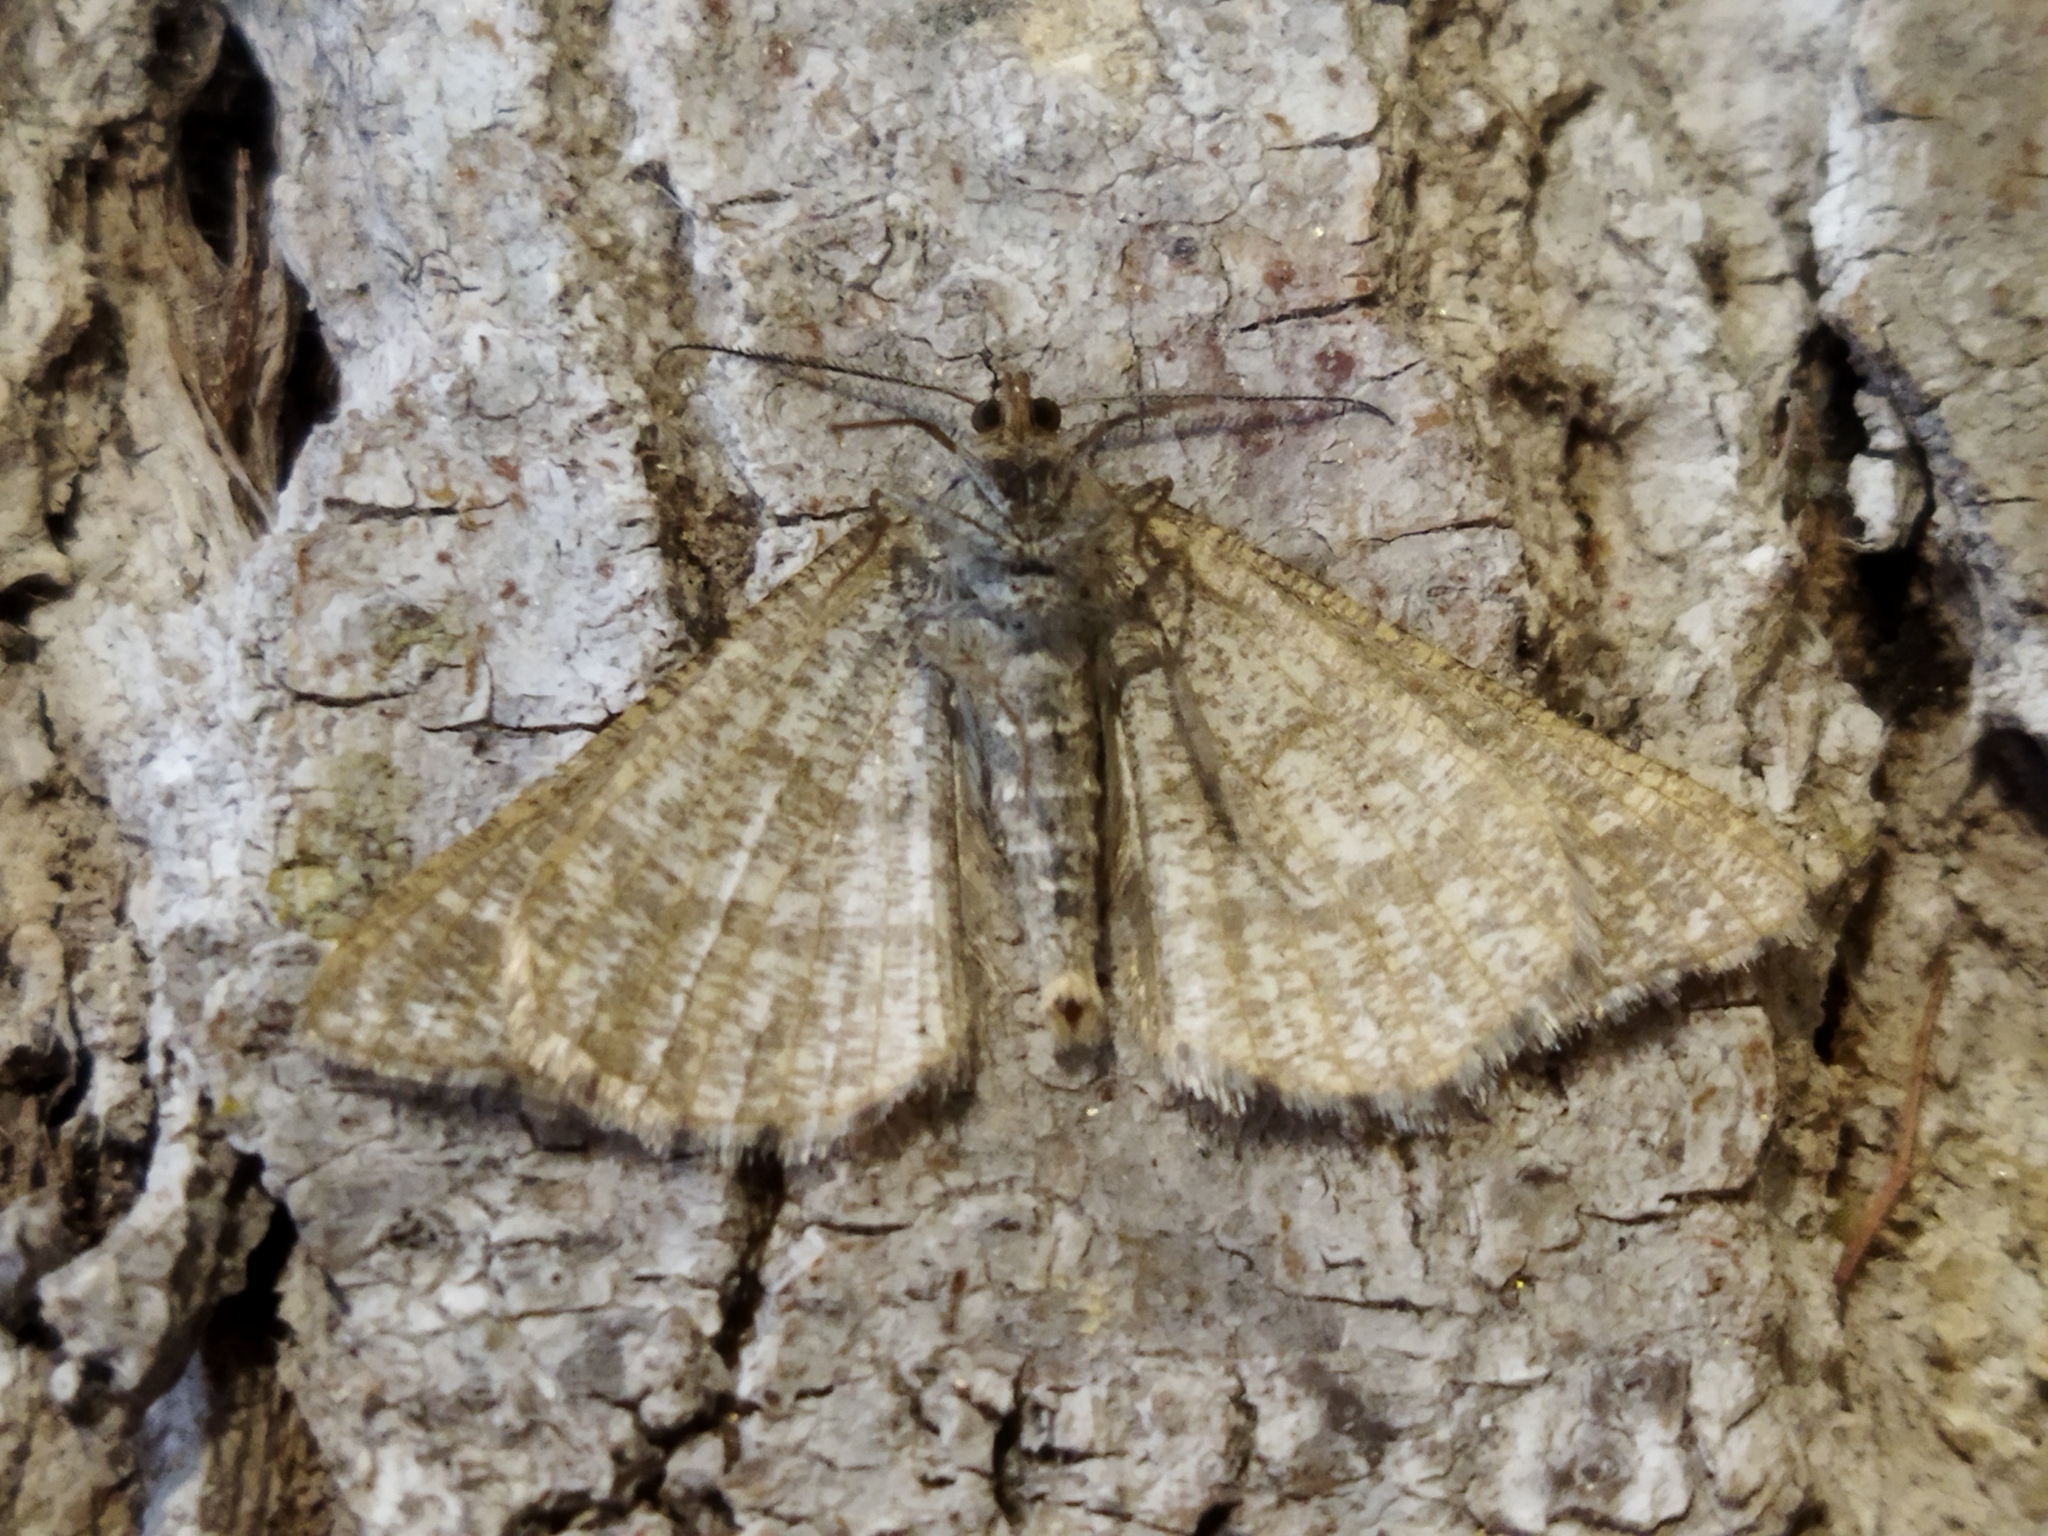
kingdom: Animalia
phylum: Arthropoda
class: Insecta
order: Lepidoptera
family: Geometridae
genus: Tephrina
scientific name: Tephrina murinaria
